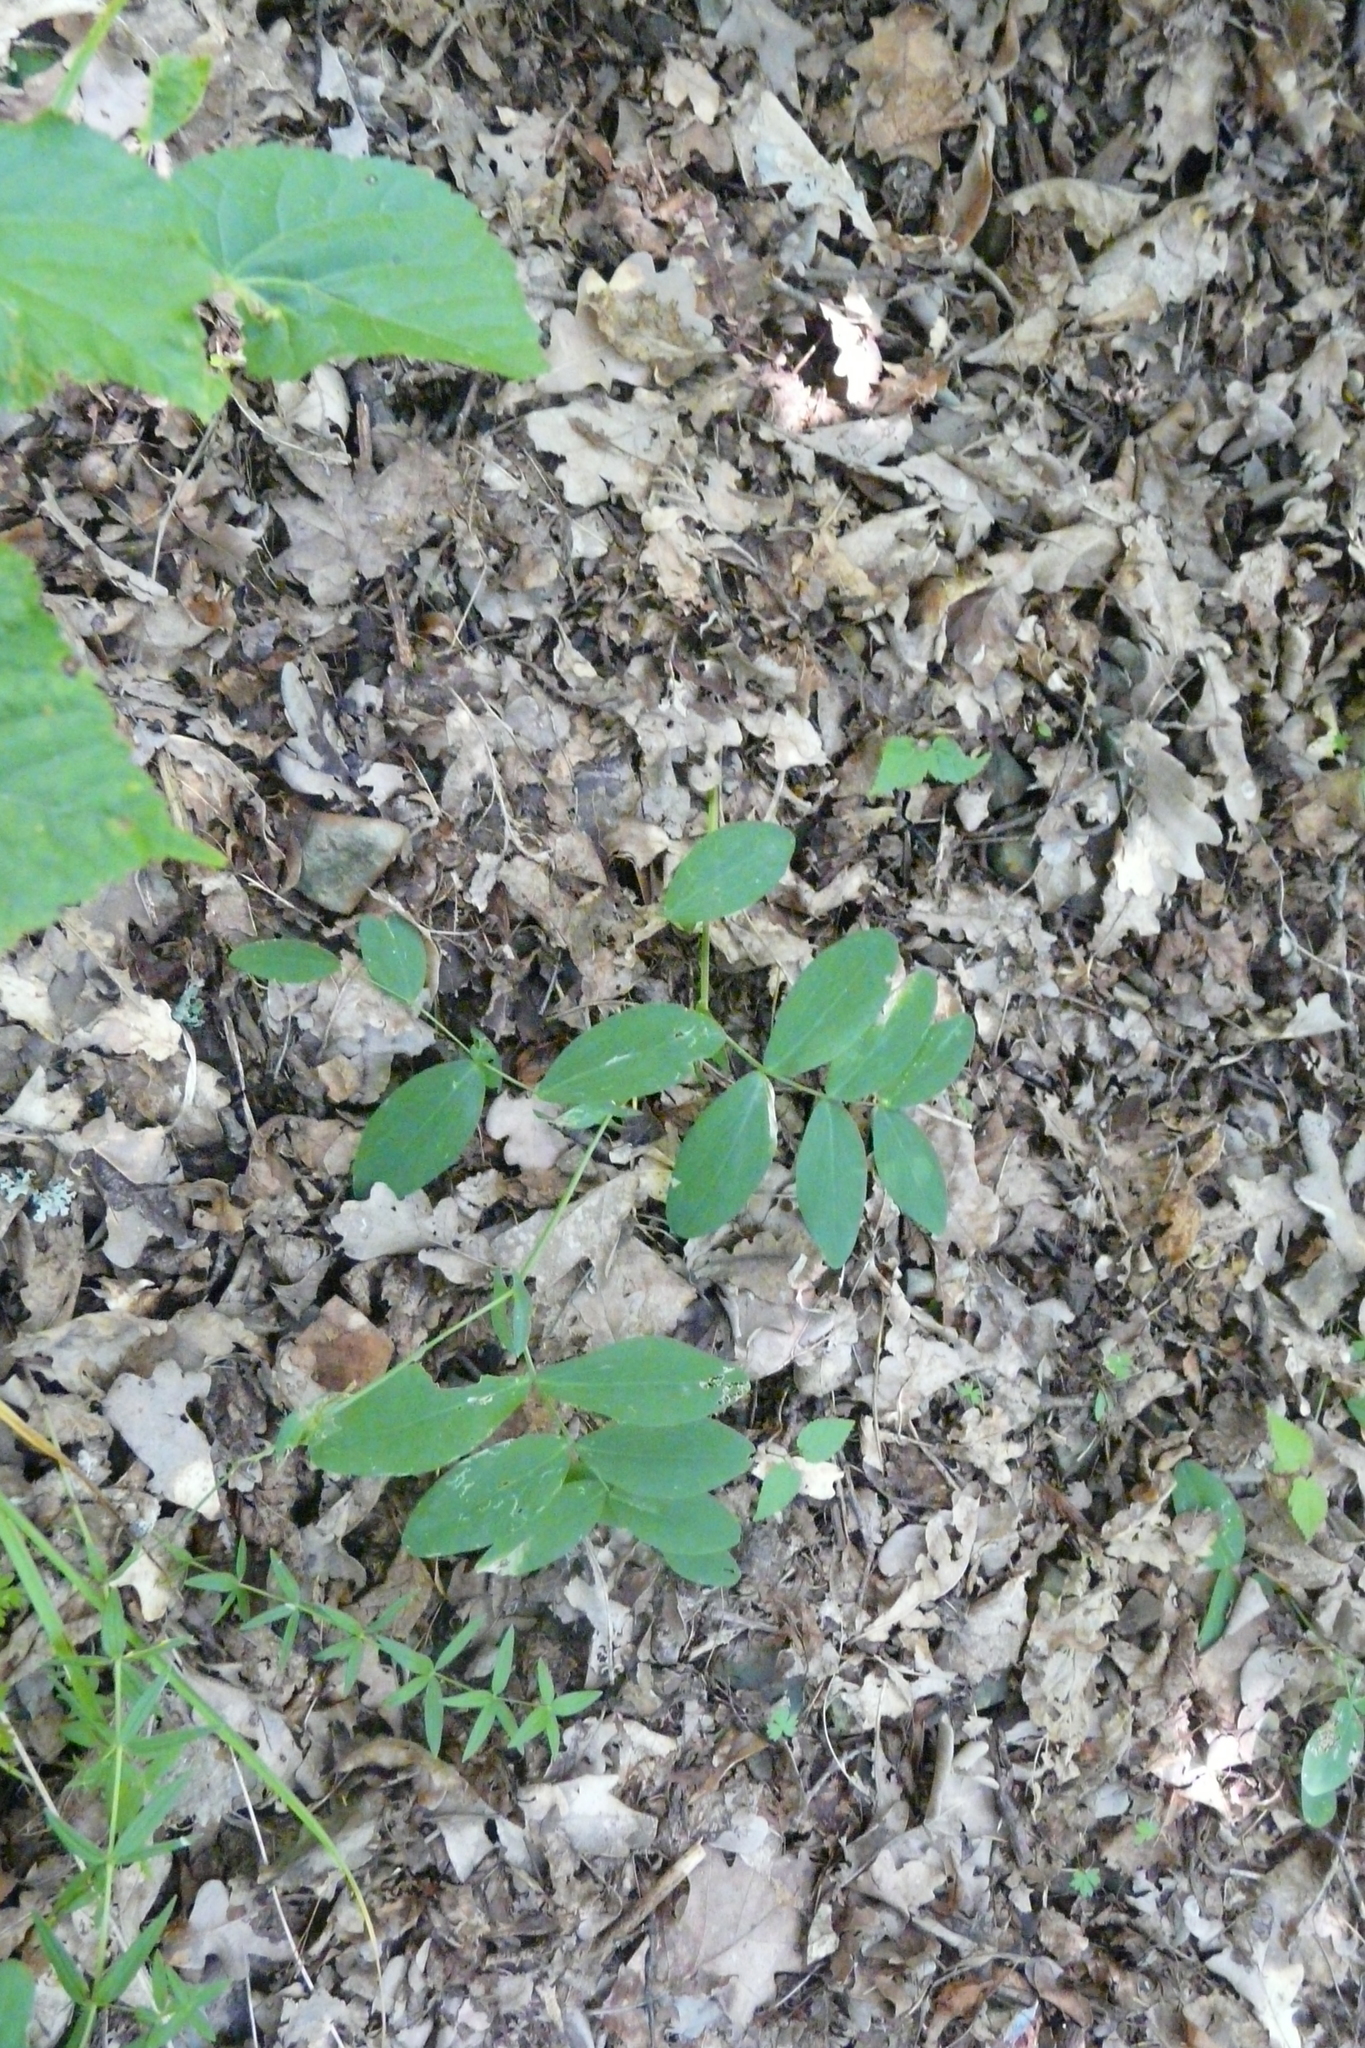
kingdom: Plantae
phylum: Tracheophyta
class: Magnoliopsida
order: Fabales
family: Fabaceae
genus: Lathyrus
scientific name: Lathyrus pisiformis
